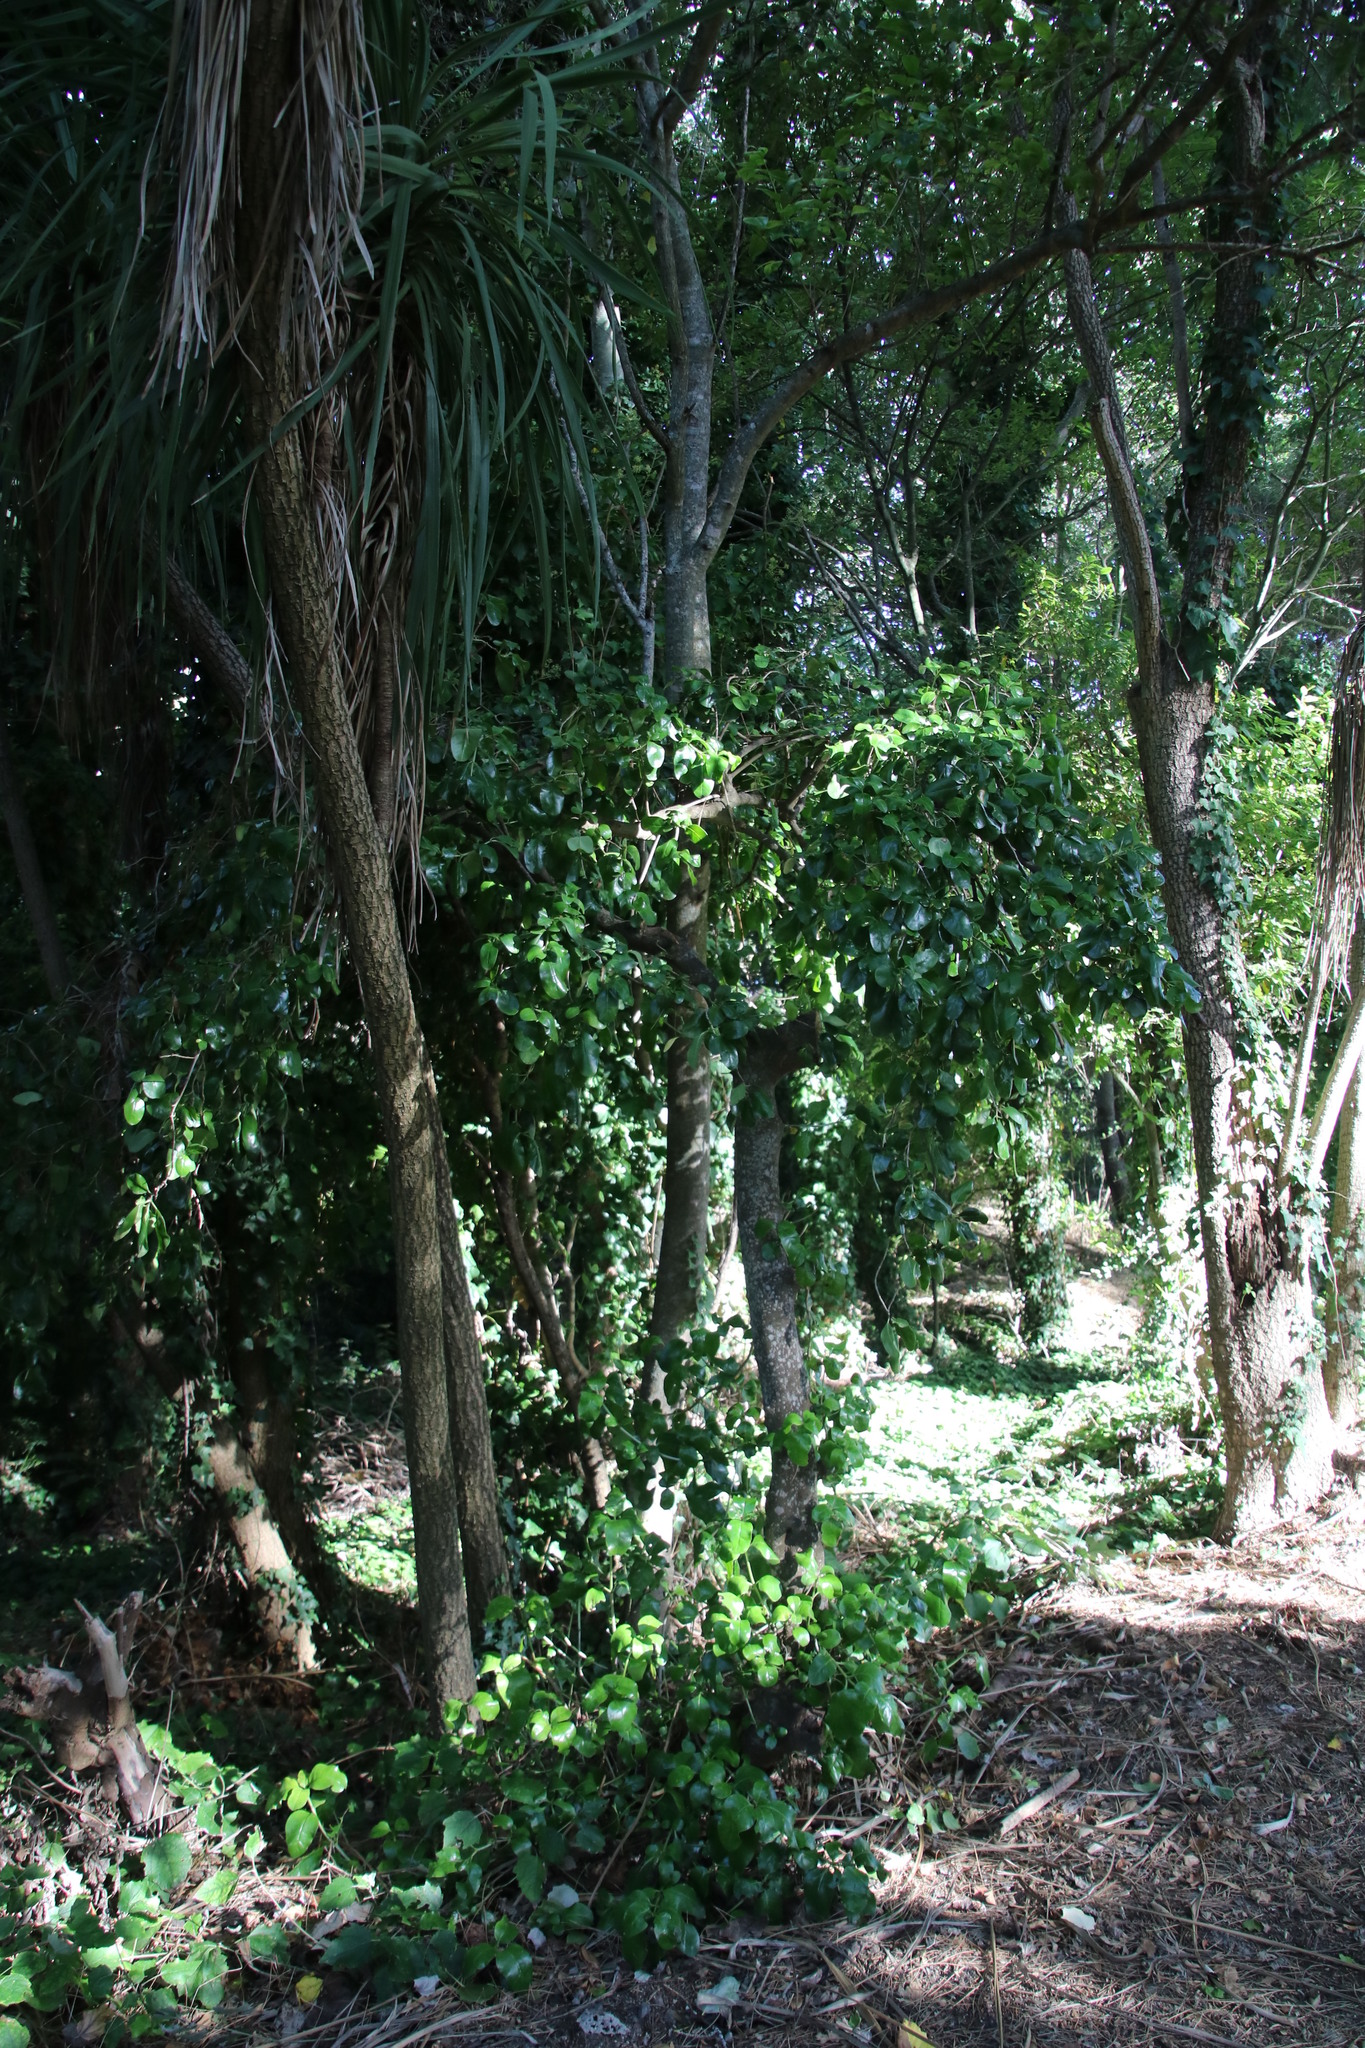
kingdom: Plantae
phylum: Tracheophyta
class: Magnoliopsida
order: Gentianales
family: Rubiaceae
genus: Coprosma
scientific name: Coprosma repens
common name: Tree bedstraw
